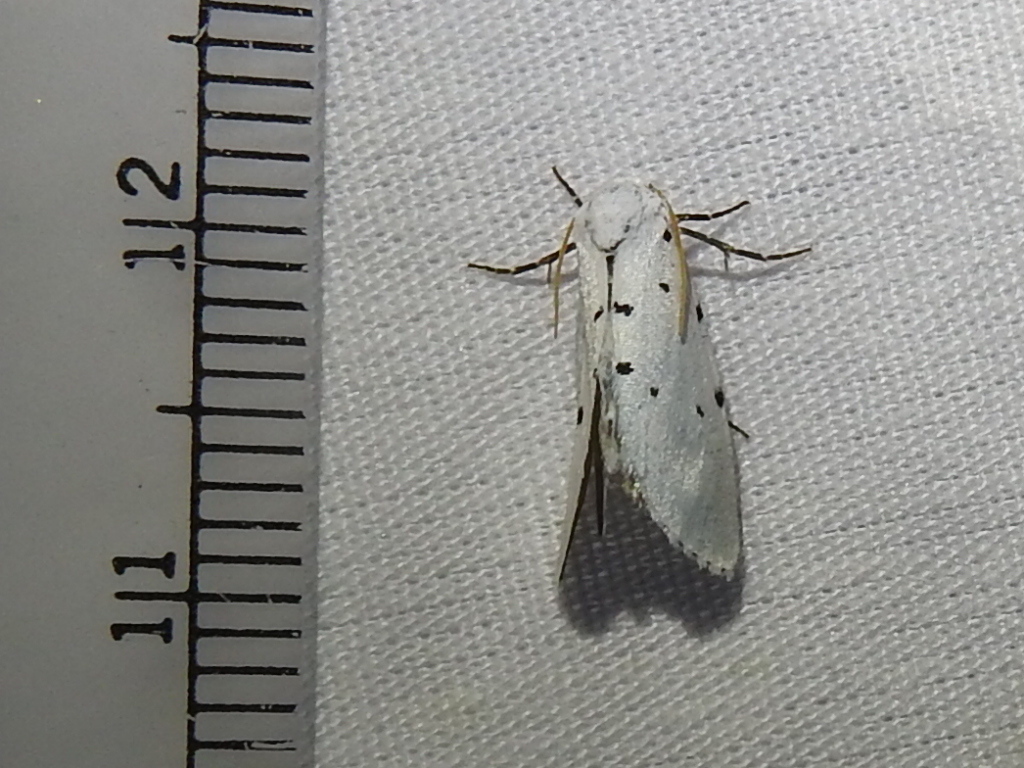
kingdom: Animalia
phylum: Arthropoda
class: Insecta
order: Lepidoptera
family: Noctuidae
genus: Grotella
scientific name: Grotella sampita
